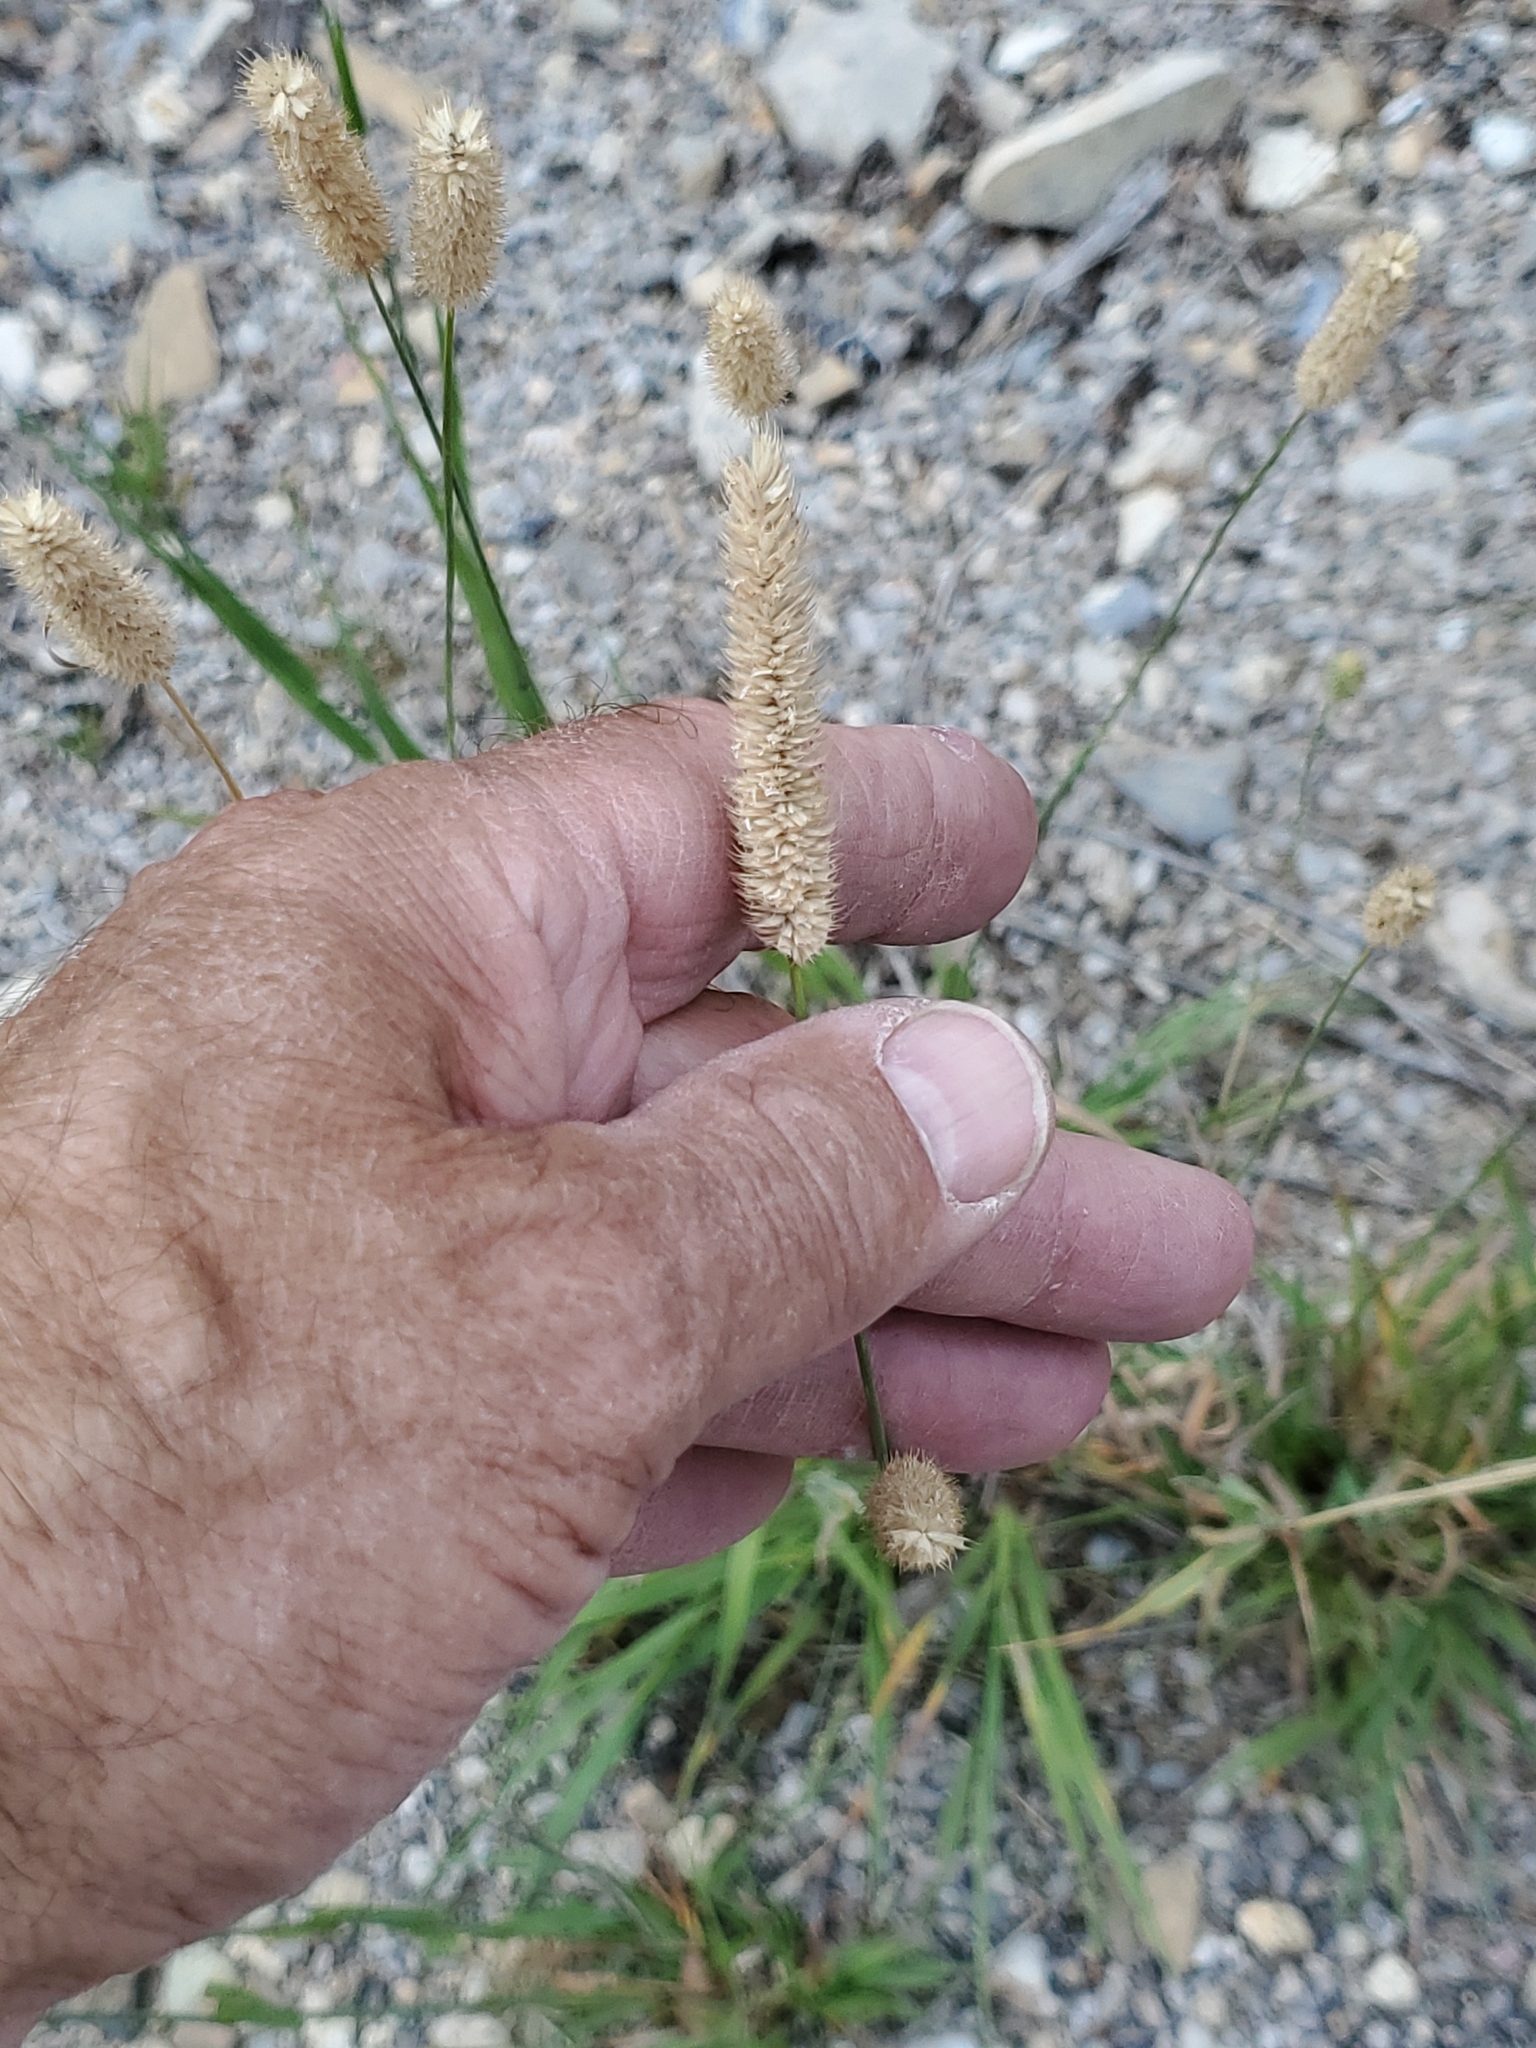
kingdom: Plantae
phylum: Tracheophyta
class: Liliopsida
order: Poales
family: Poaceae
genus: Phleum
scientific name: Phleum pratense
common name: Timothy grass
